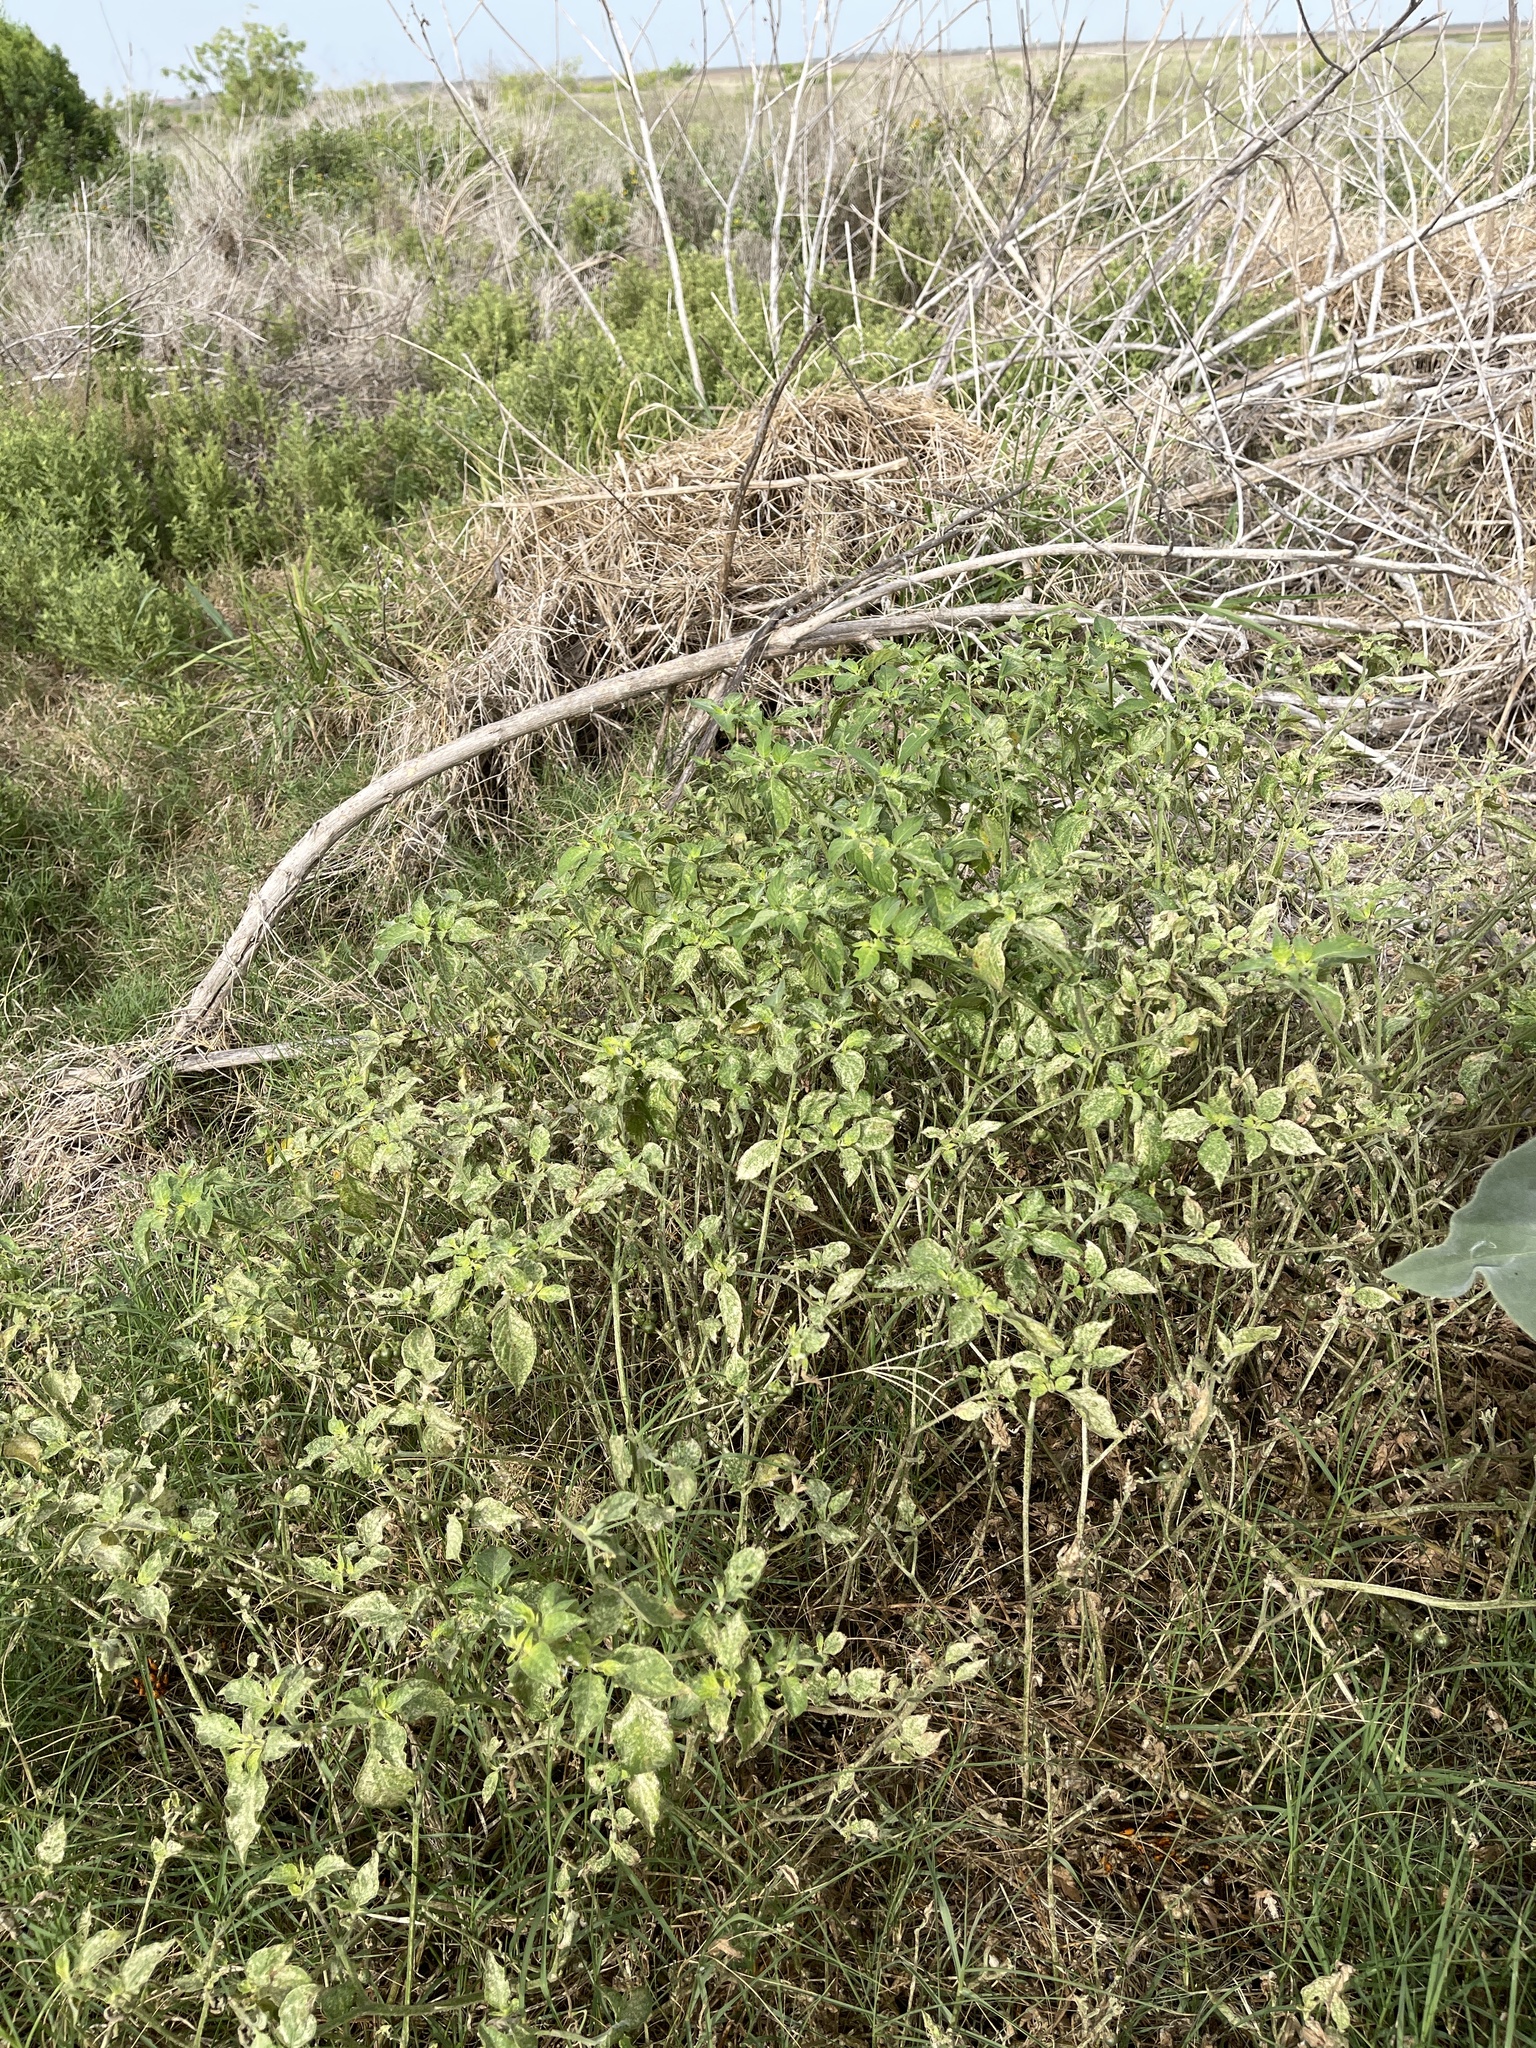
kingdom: Plantae
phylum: Tracheophyta
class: Magnoliopsida
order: Solanales
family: Solanaceae
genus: Solanum
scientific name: Solanum americanum
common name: American black nightshade
